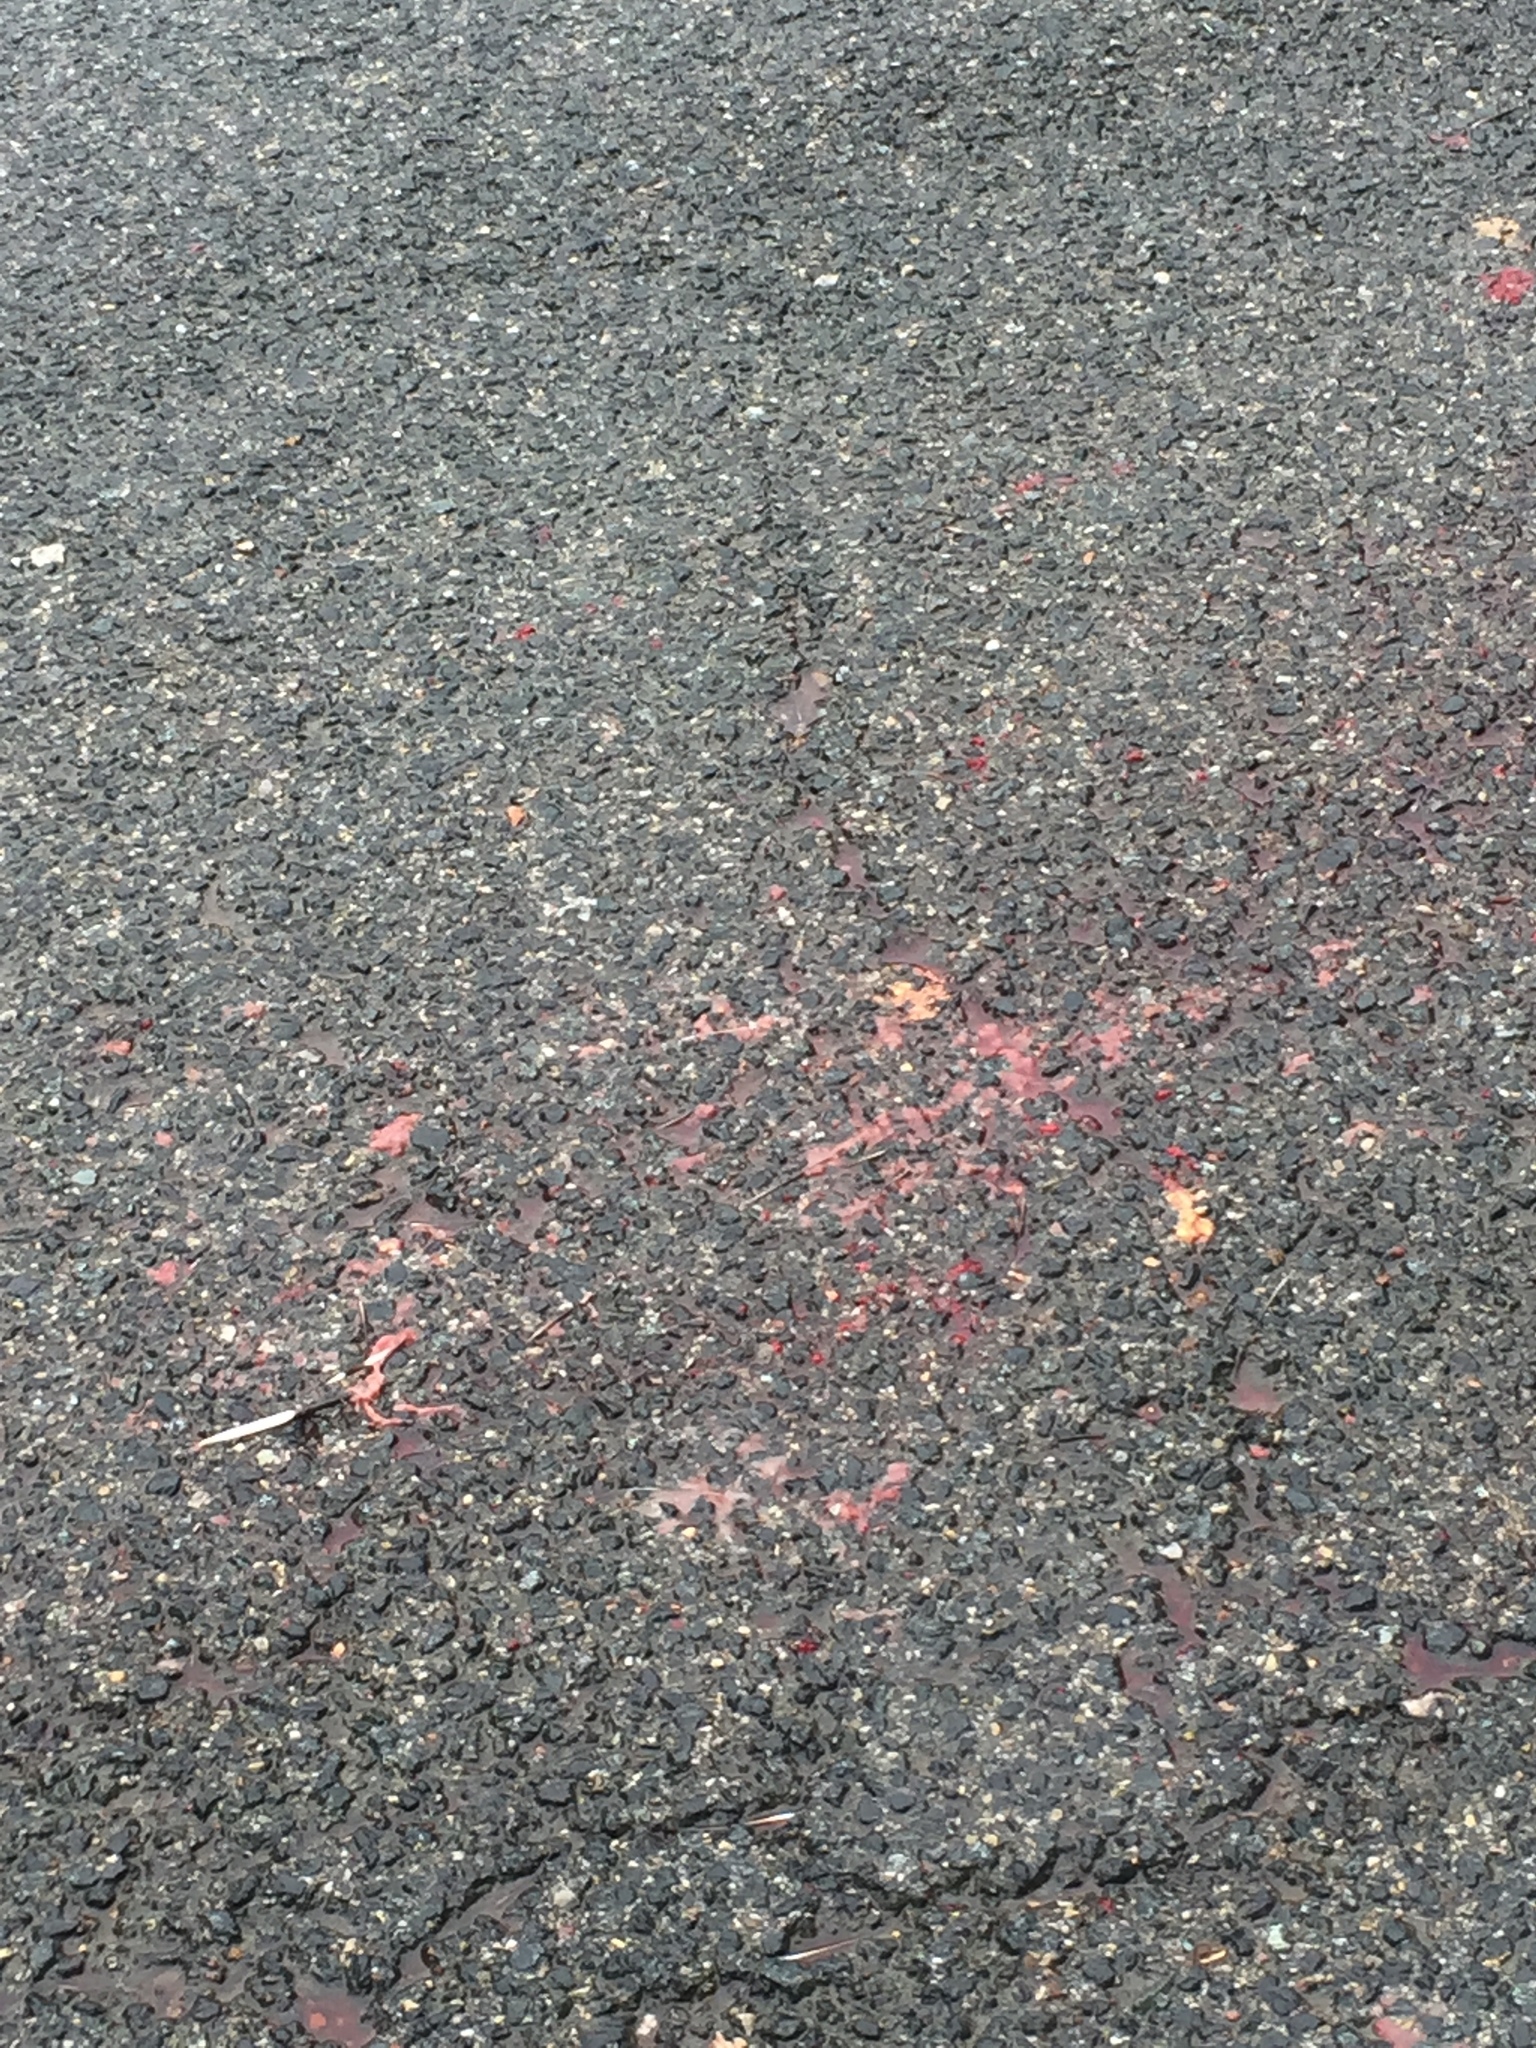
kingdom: Animalia
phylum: Chordata
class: Mammalia
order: Rodentia
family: Hystricidae
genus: Hystrix
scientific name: Hystrix cristata
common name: Crested porcupine
